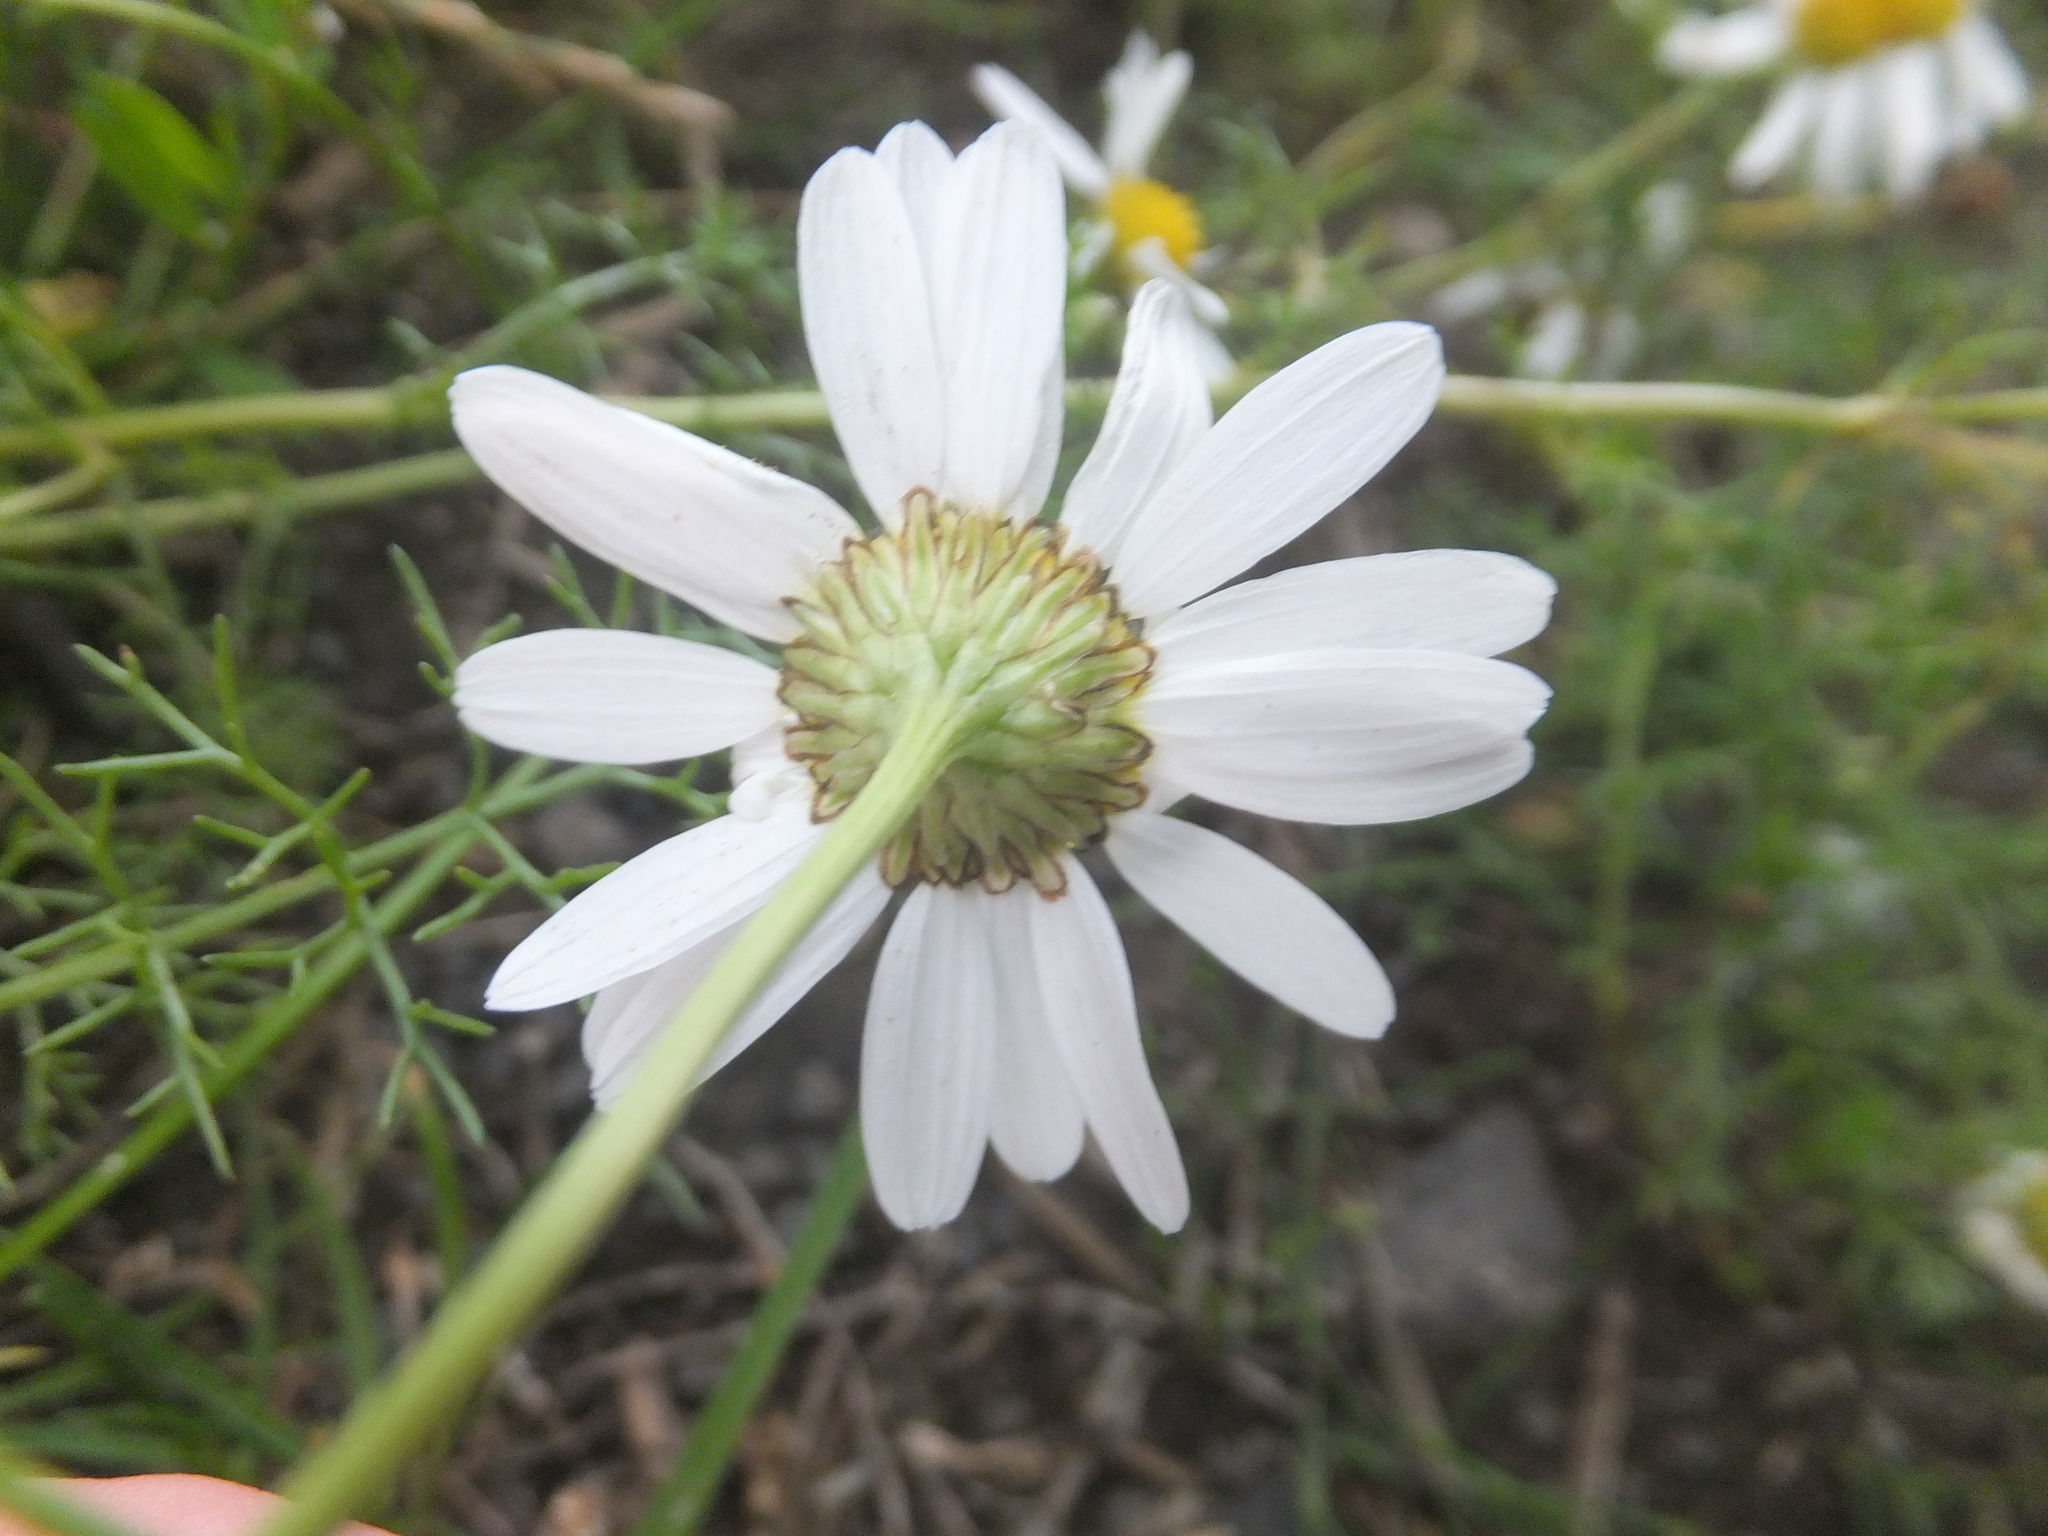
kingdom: Plantae
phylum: Tracheophyta
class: Magnoliopsida
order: Asterales
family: Asteraceae
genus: Tripleurospermum
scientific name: Tripleurospermum inodorum
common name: Scentless mayweed
